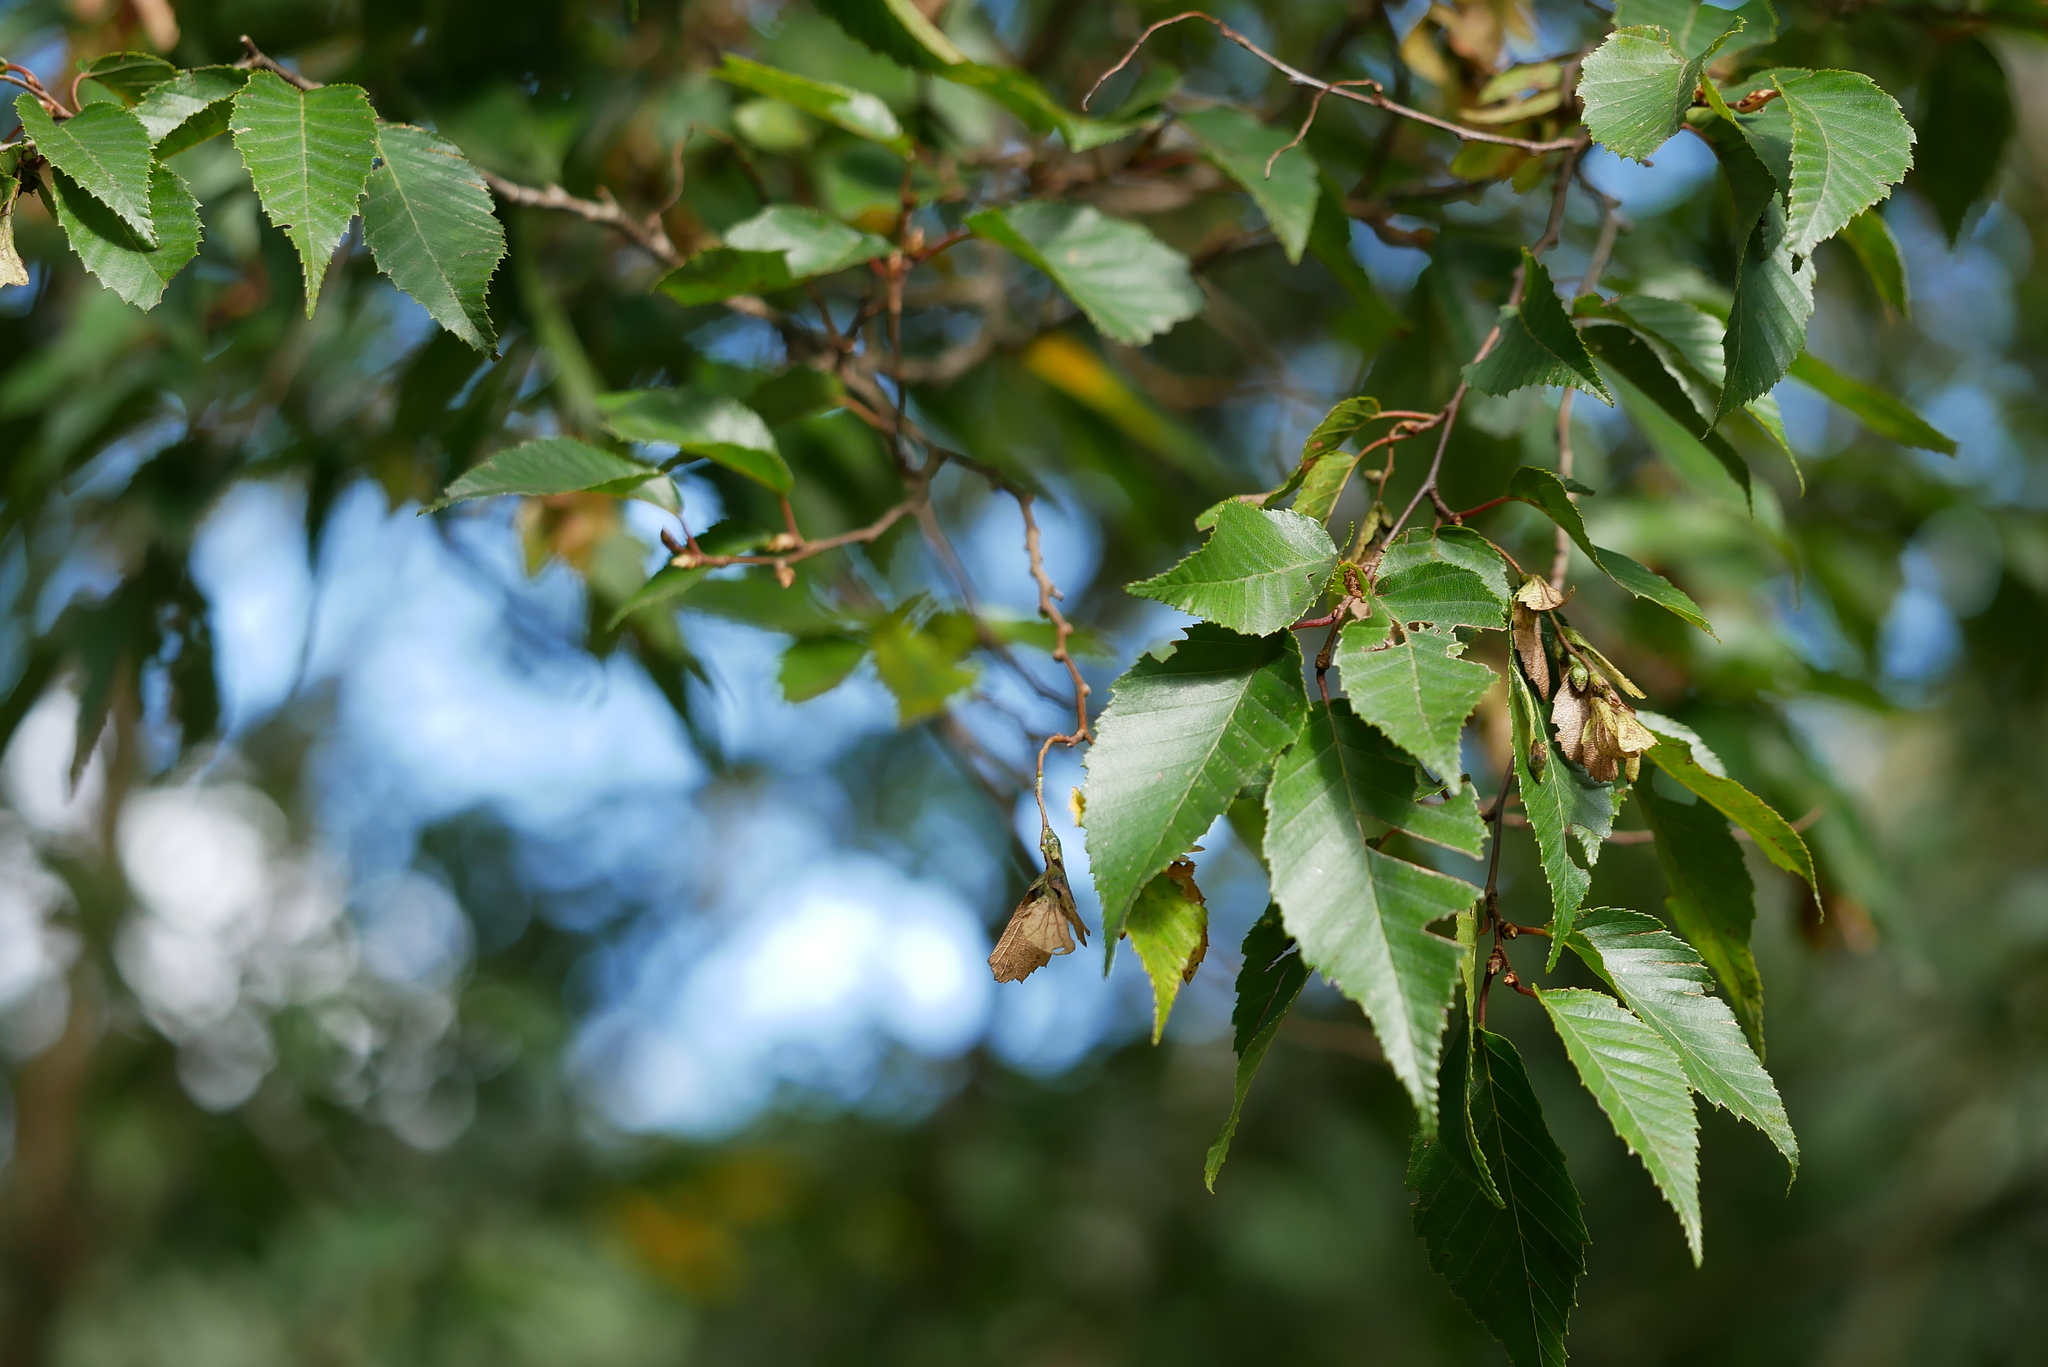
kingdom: Plantae
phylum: Tracheophyta
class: Magnoliopsida
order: Fagales
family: Betulaceae
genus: Carpinus
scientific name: Carpinus kawakamii
